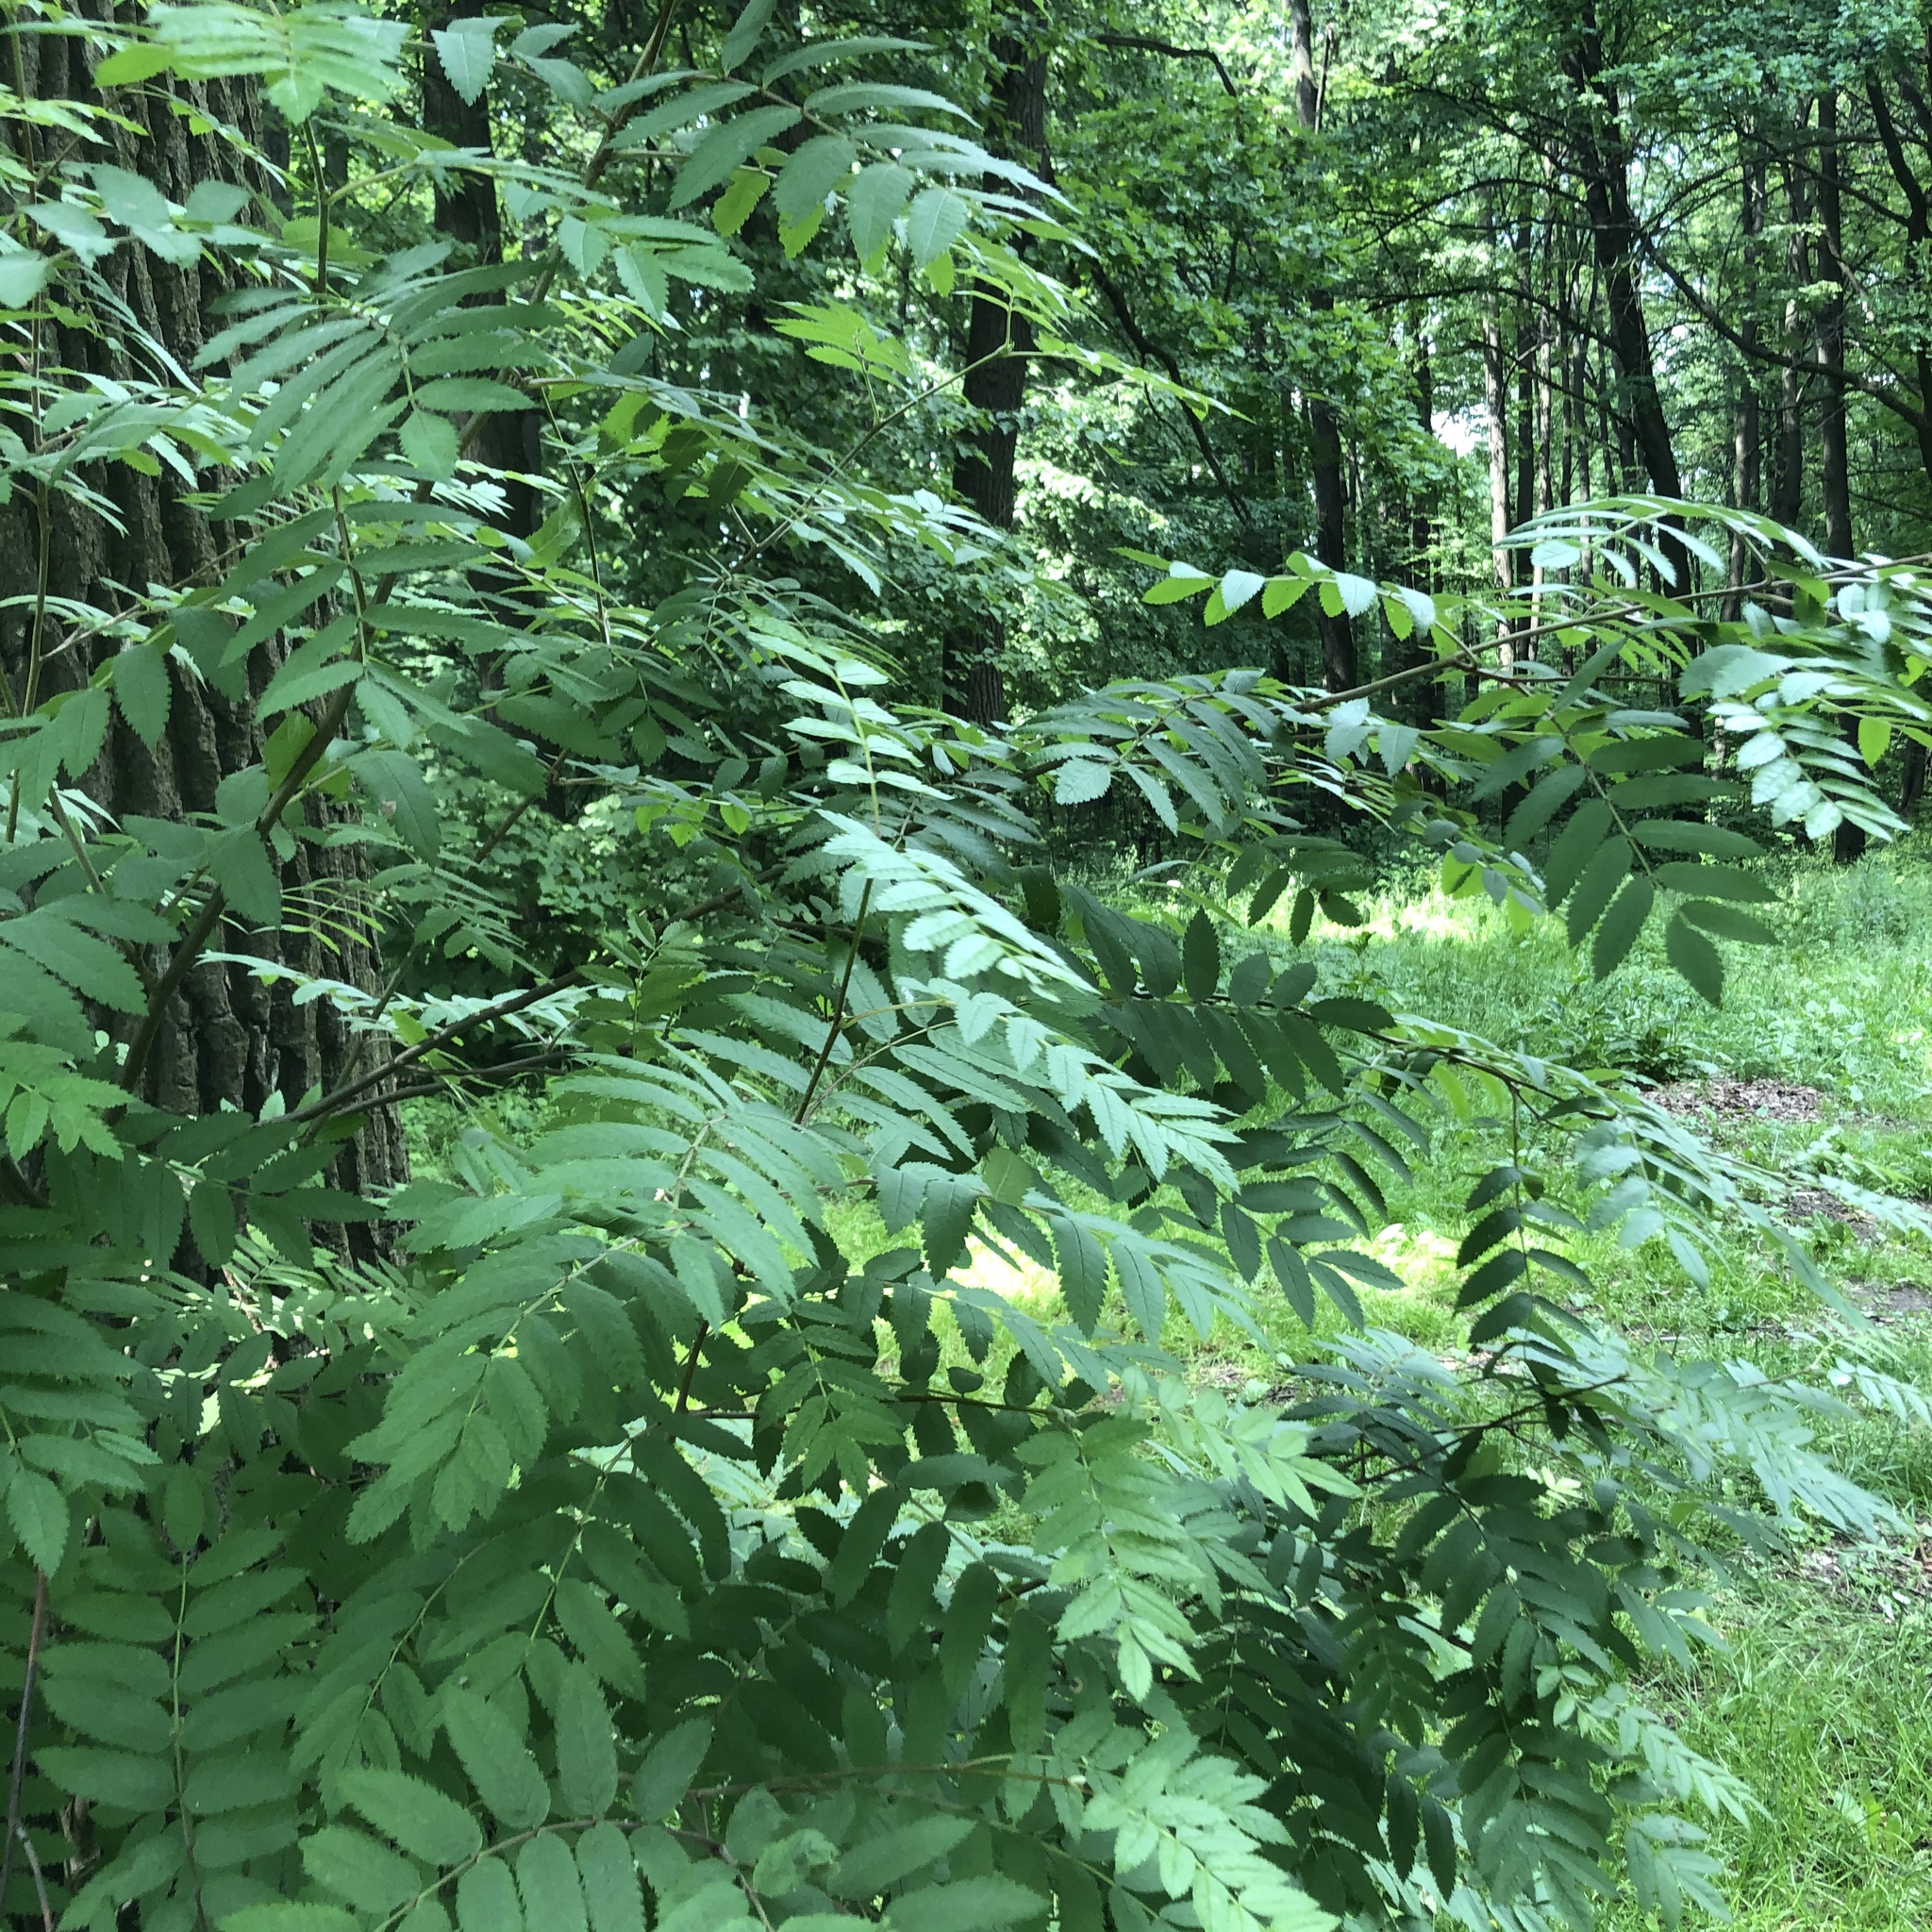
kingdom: Plantae
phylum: Tracheophyta
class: Magnoliopsida
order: Rosales
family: Rosaceae
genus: Sorbus
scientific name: Sorbus aucuparia
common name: Rowan
